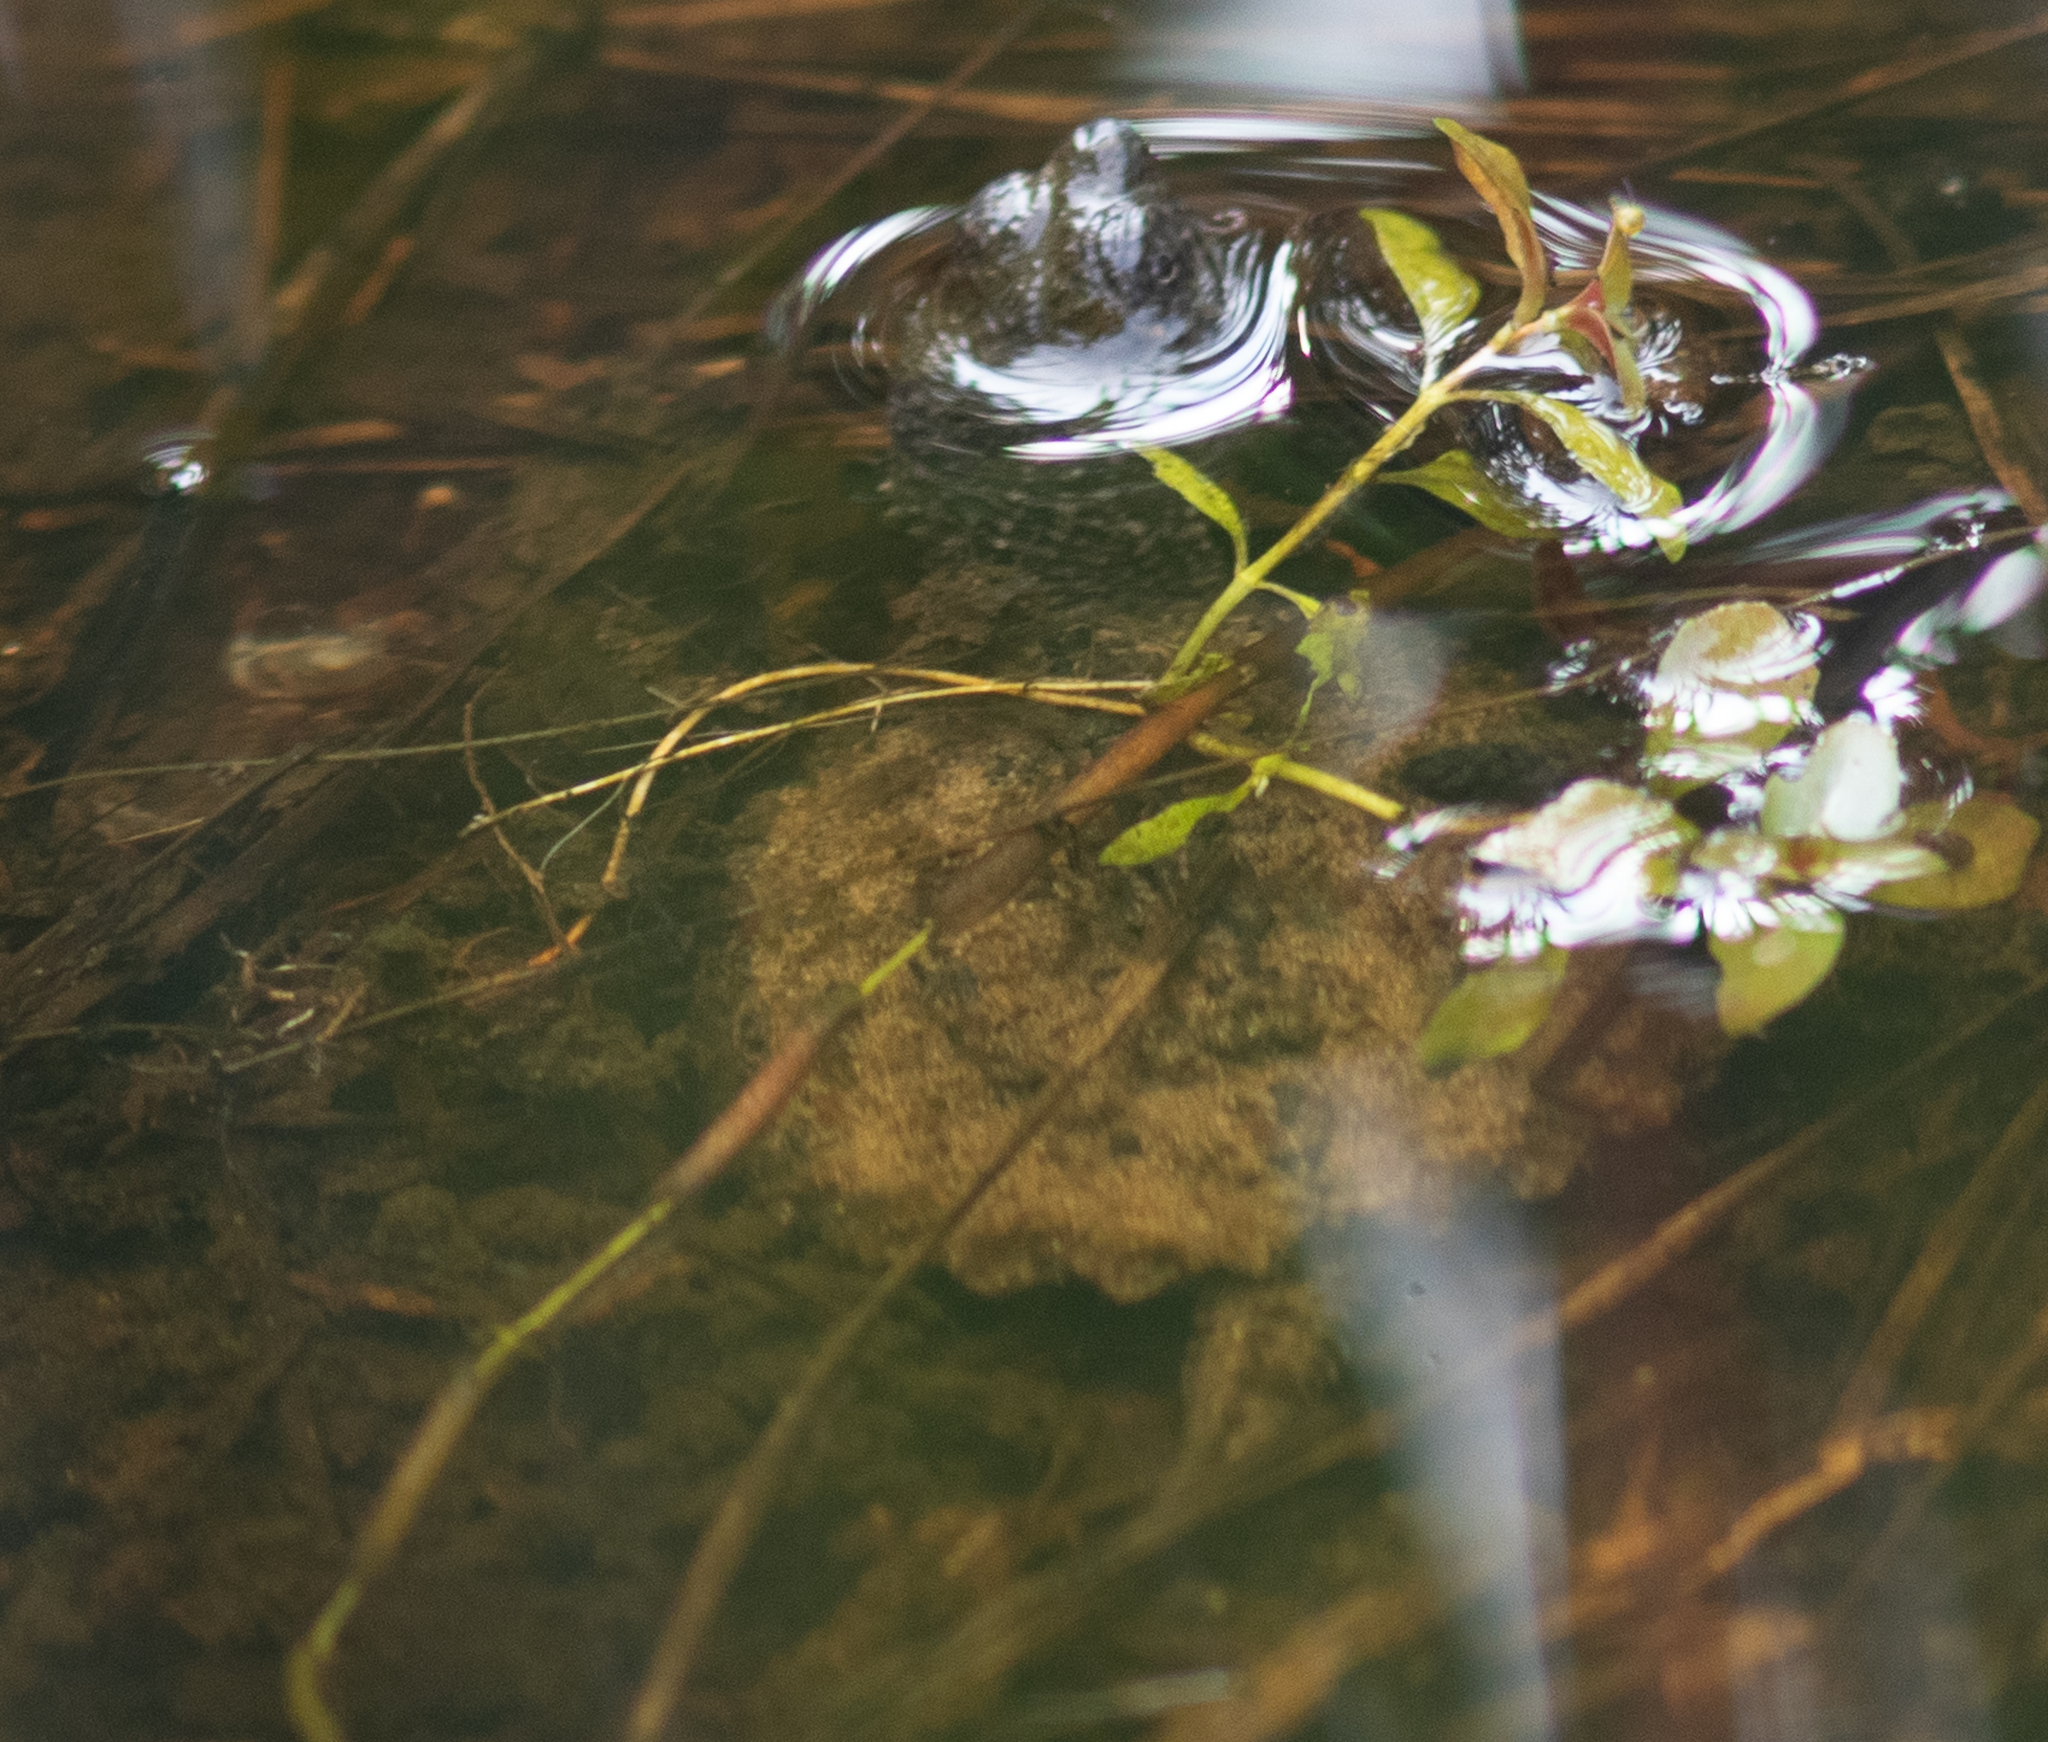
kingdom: Animalia
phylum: Chordata
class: Testudines
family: Chelydridae
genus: Chelydra
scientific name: Chelydra serpentina
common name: Common snapping turtle
